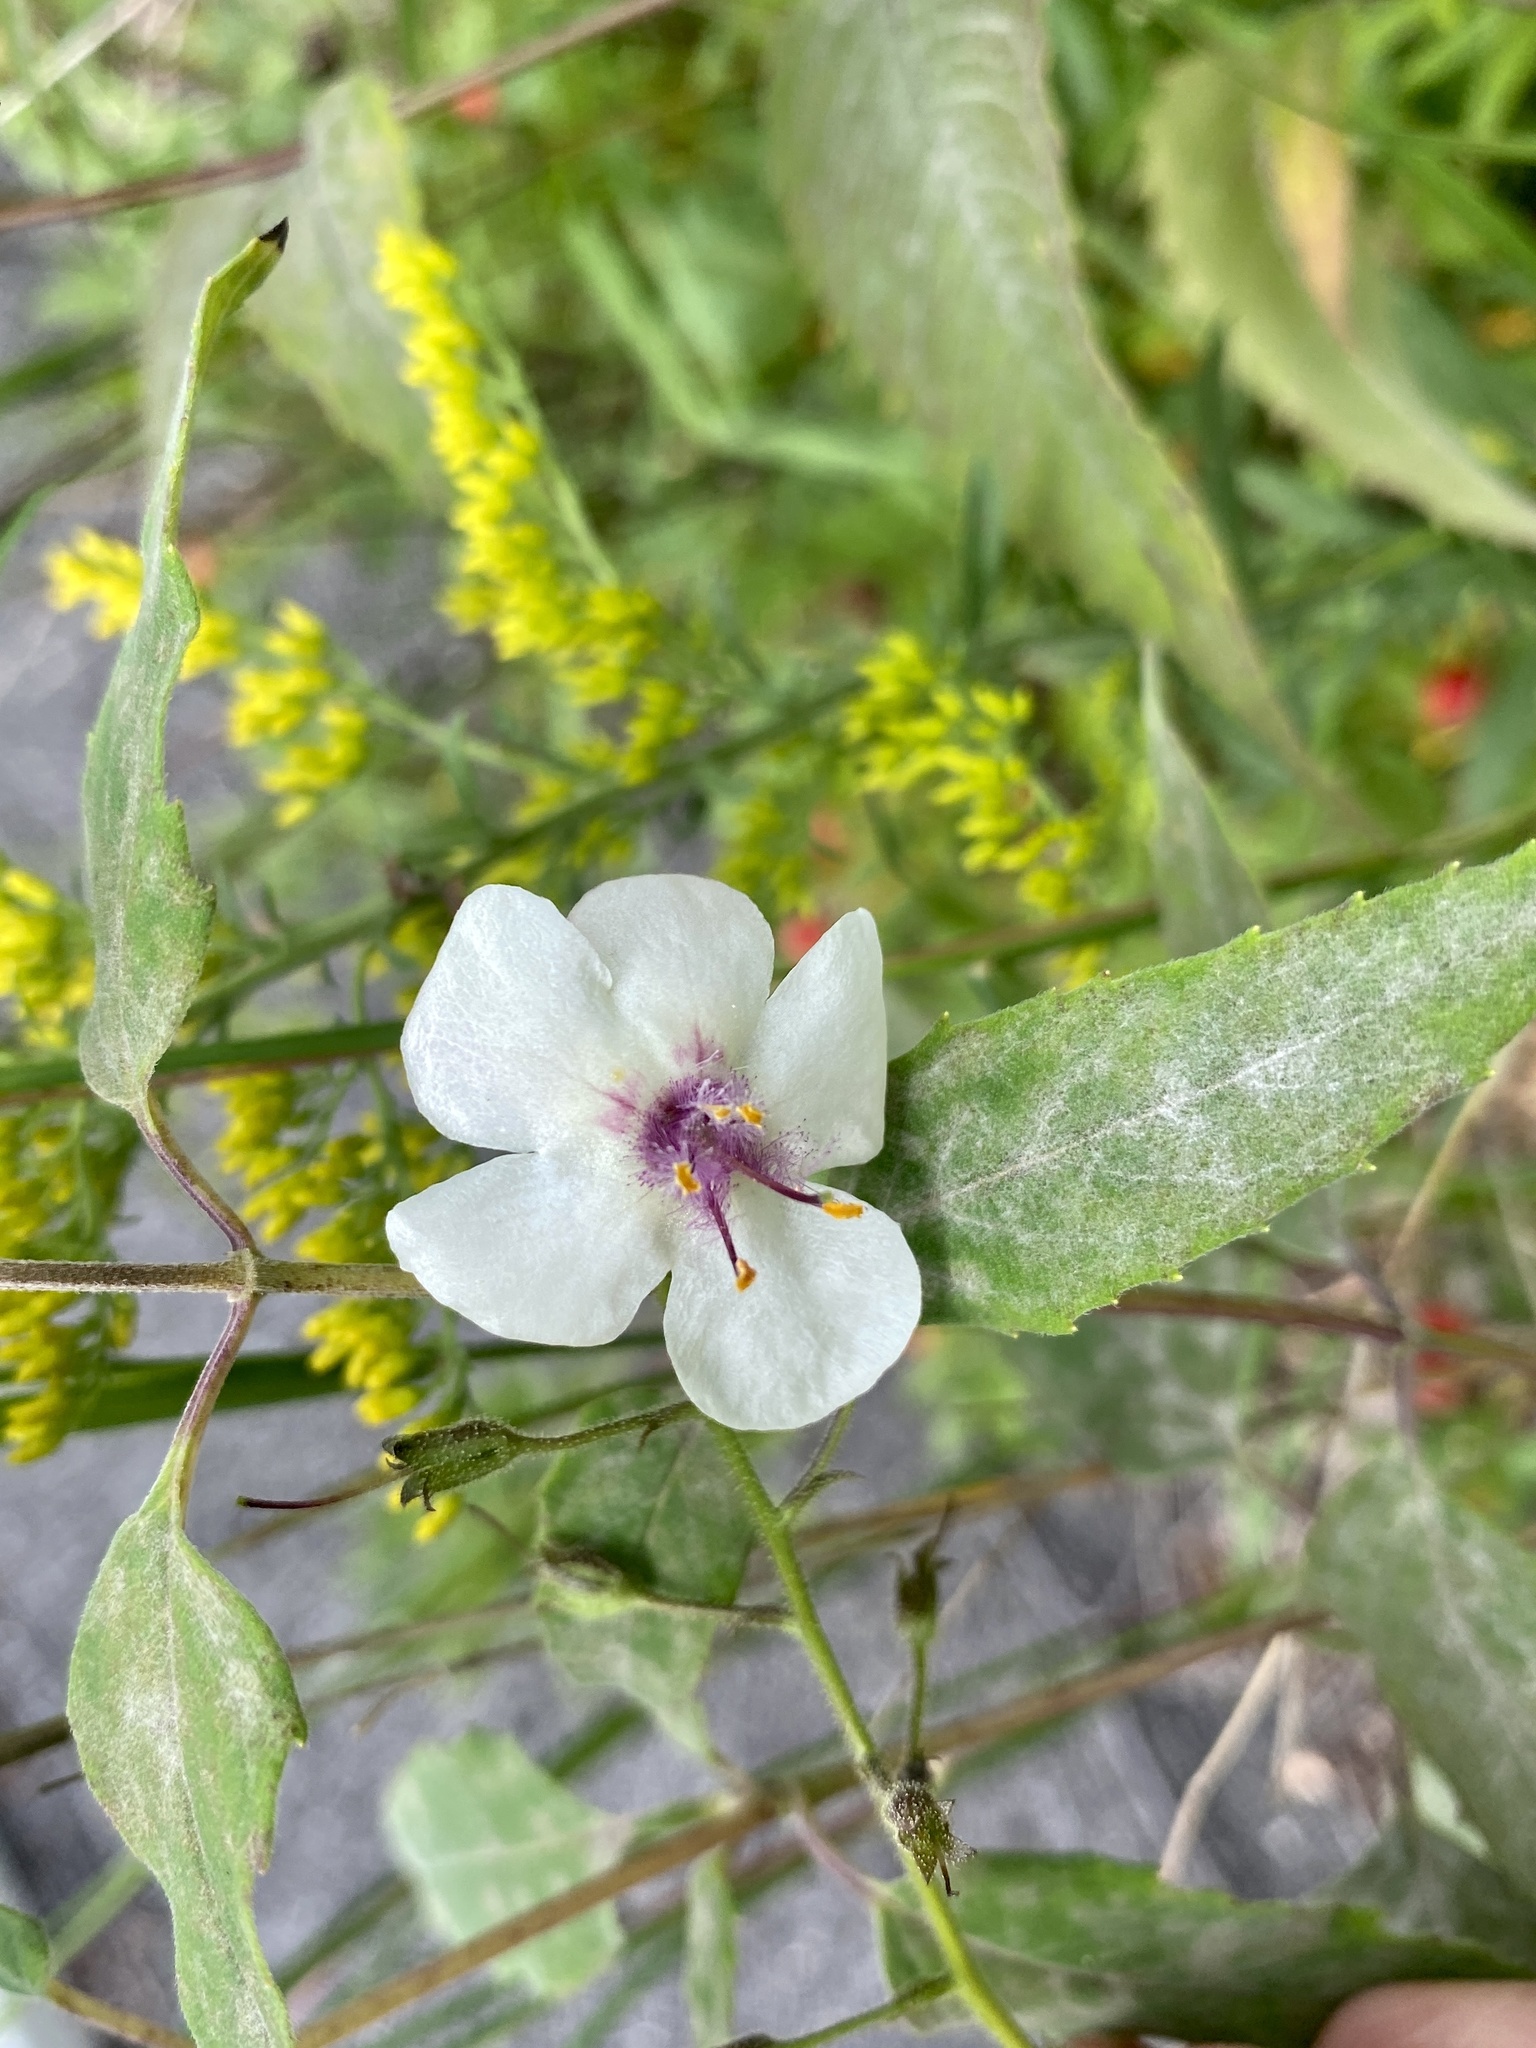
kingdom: Plantae
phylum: Tracheophyta
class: Magnoliopsida
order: Lamiales
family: Scrophulariaceae
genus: Verbascum
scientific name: Verbascum blattaria
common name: Moth mullein
